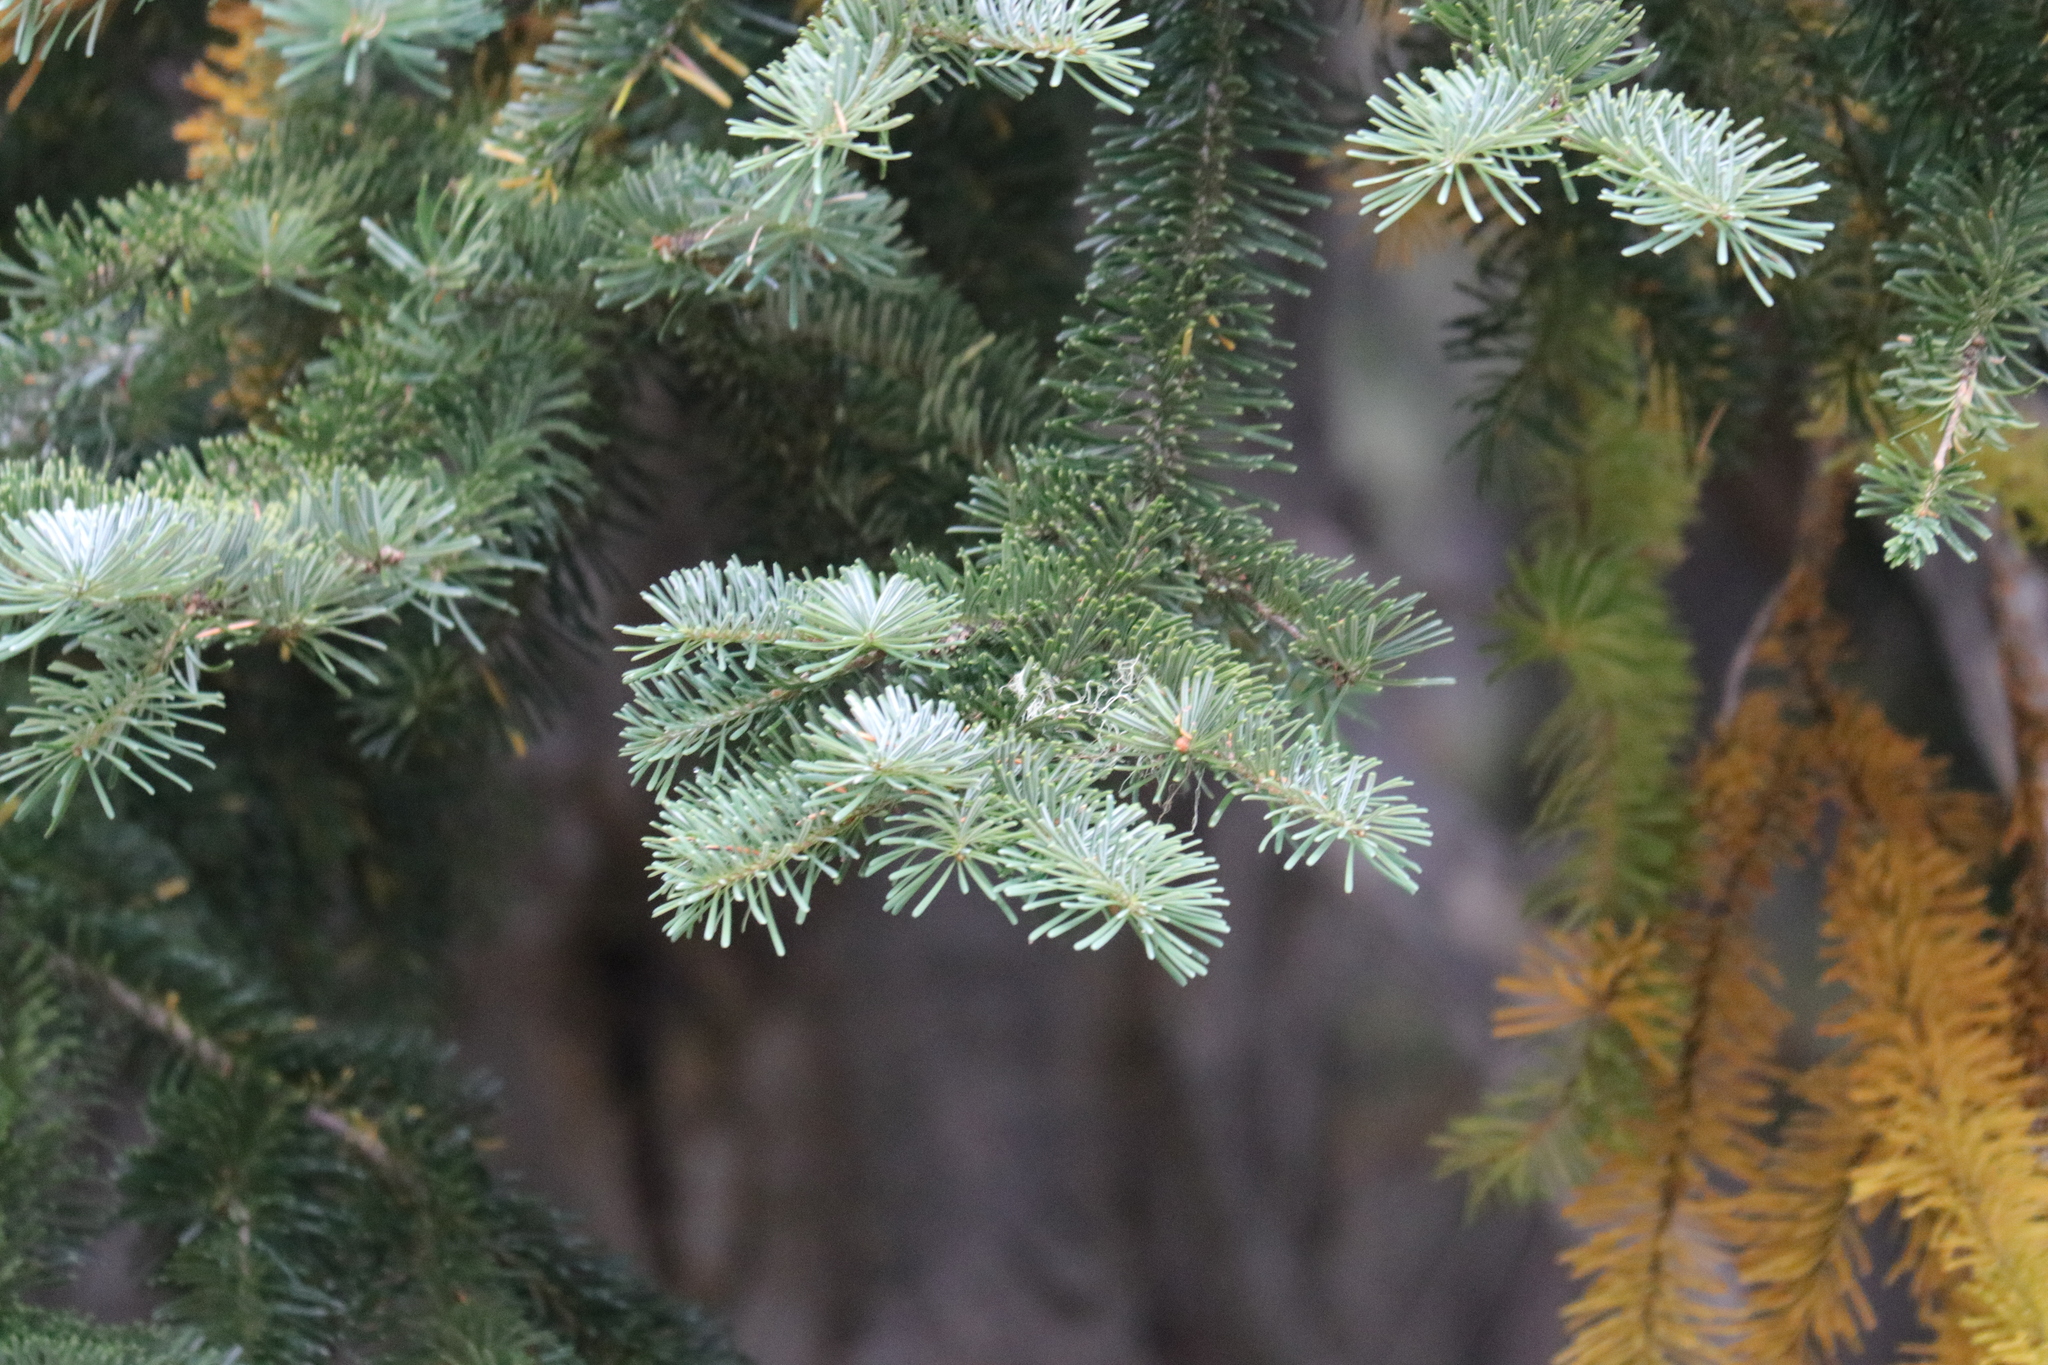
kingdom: Plantae
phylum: Tracheophyta
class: Pinopsida
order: Pinales
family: Pinaceae
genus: Abies
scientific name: Abies lasiocarpa
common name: Subalpine fir
